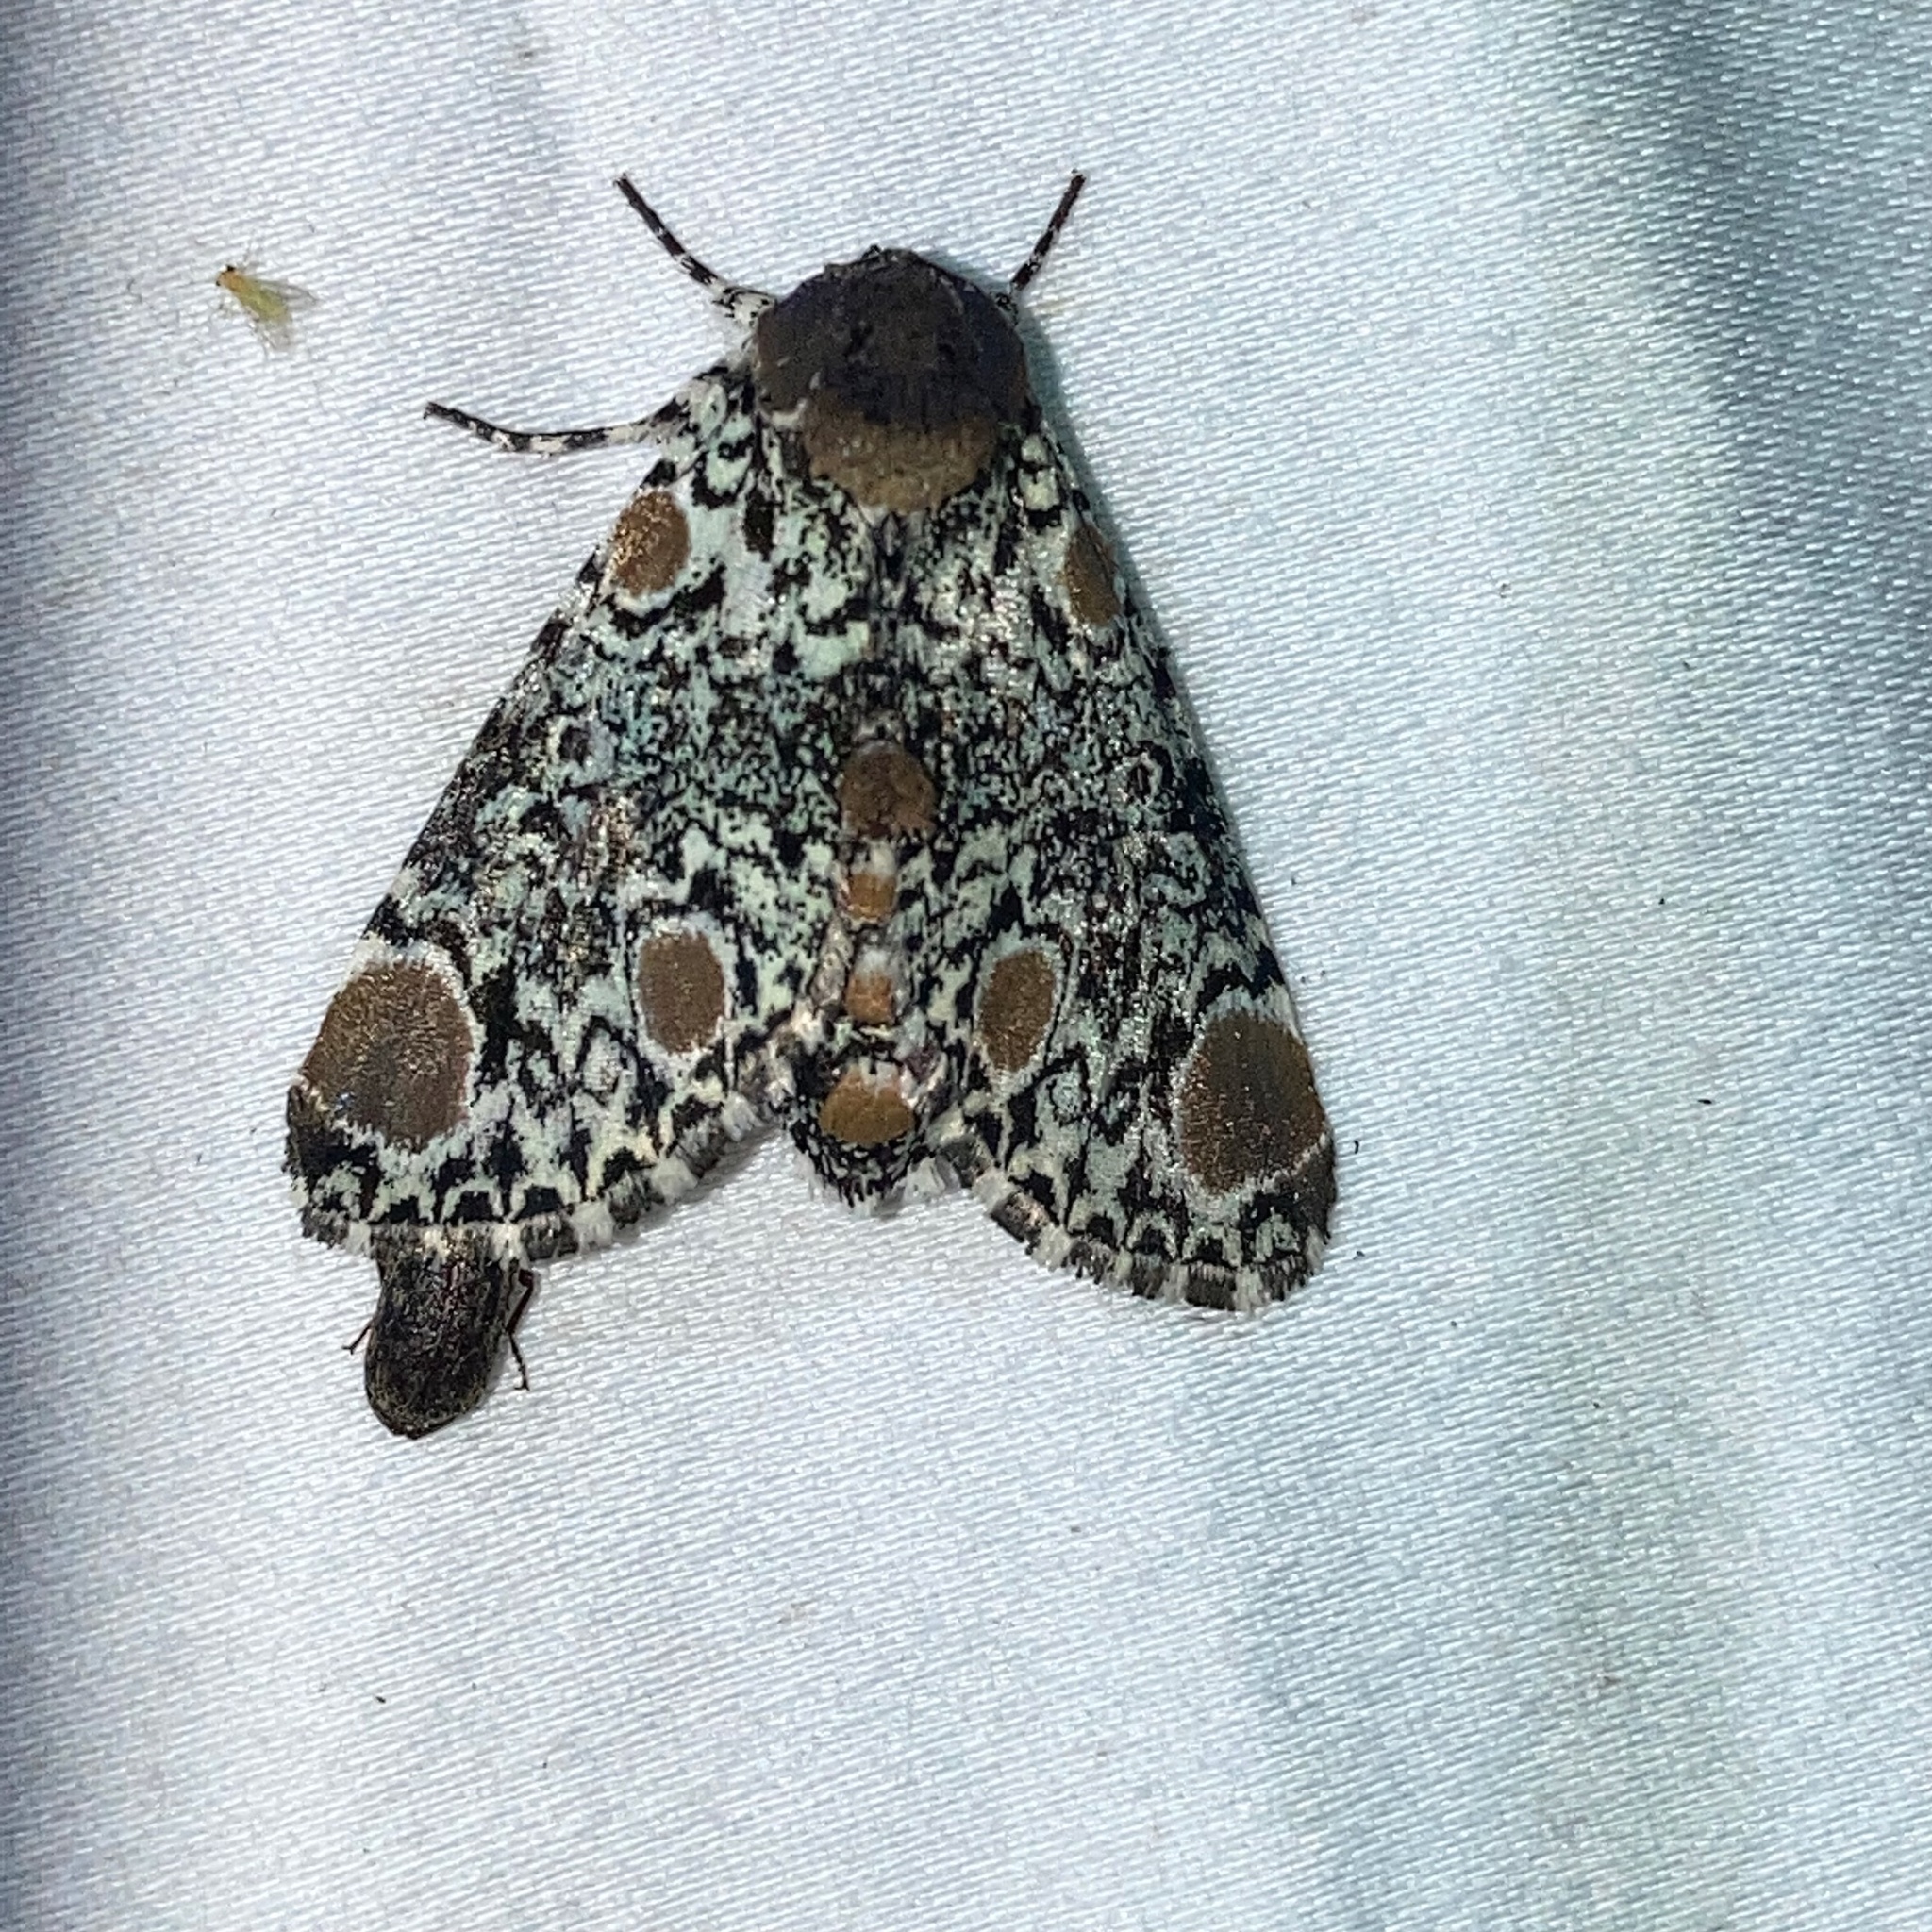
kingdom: Animalia
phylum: Arthropoda
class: Insecta
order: Lepidoptera
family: Noctuidae
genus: Harrisimemna
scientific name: Harrisimemna trisignata
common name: Harris threespot
